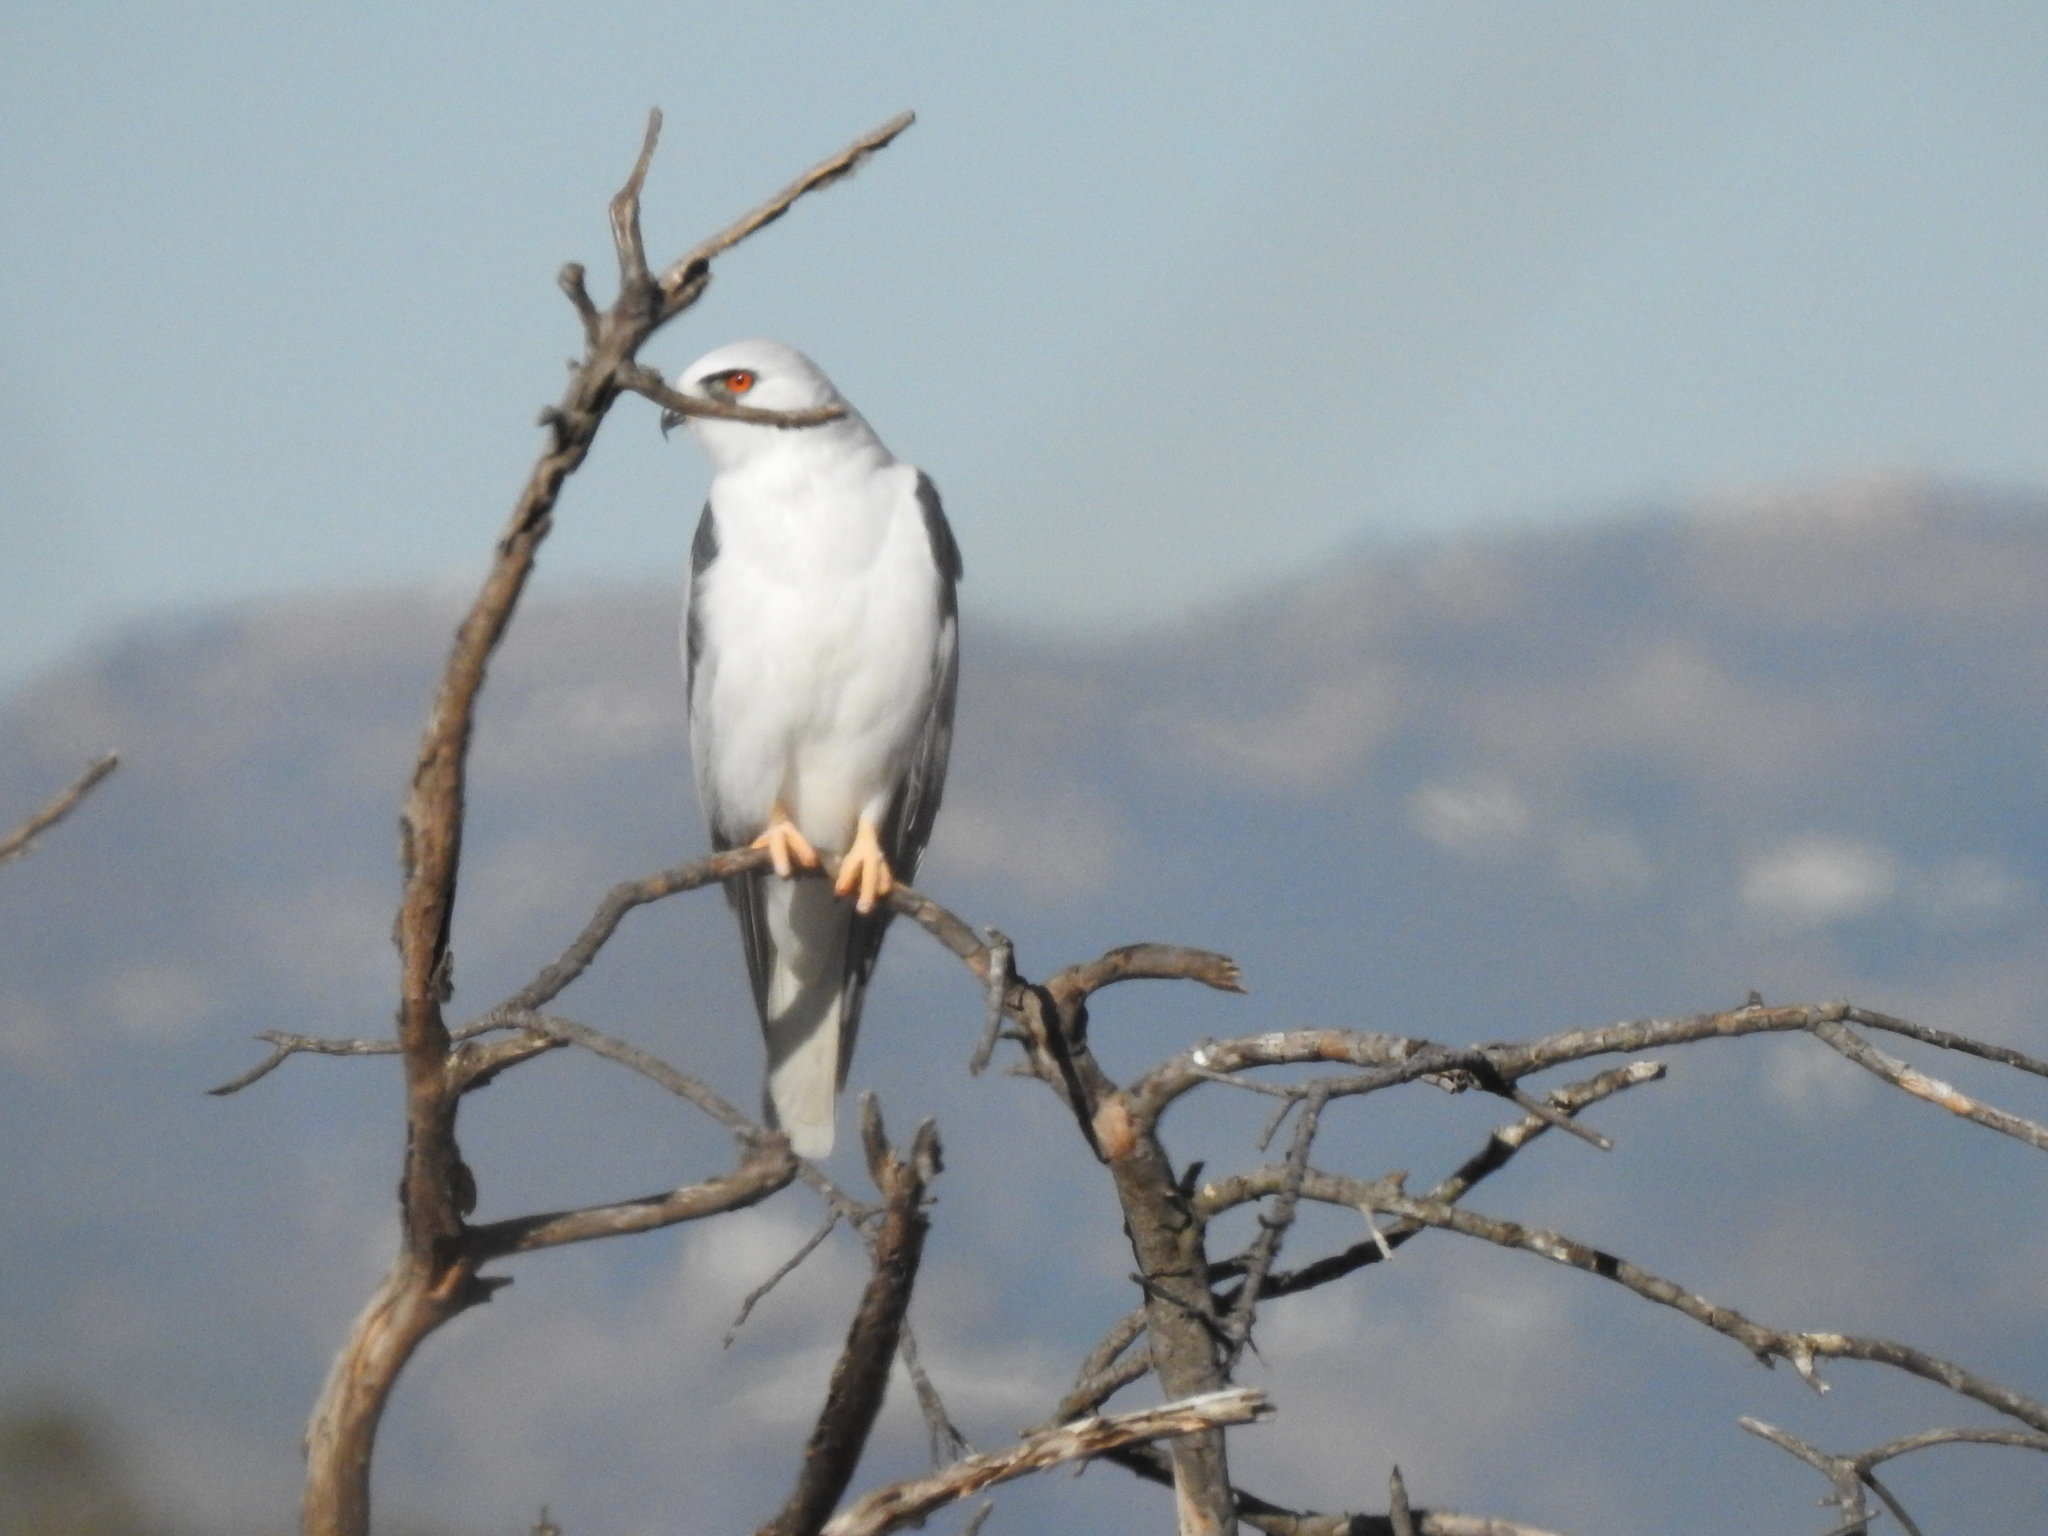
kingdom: Animalia
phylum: Chordata
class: Aves
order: Accipitriformes
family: Accipitridae
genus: Elanus
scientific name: Elanus leucurus
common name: White-tailed kite
